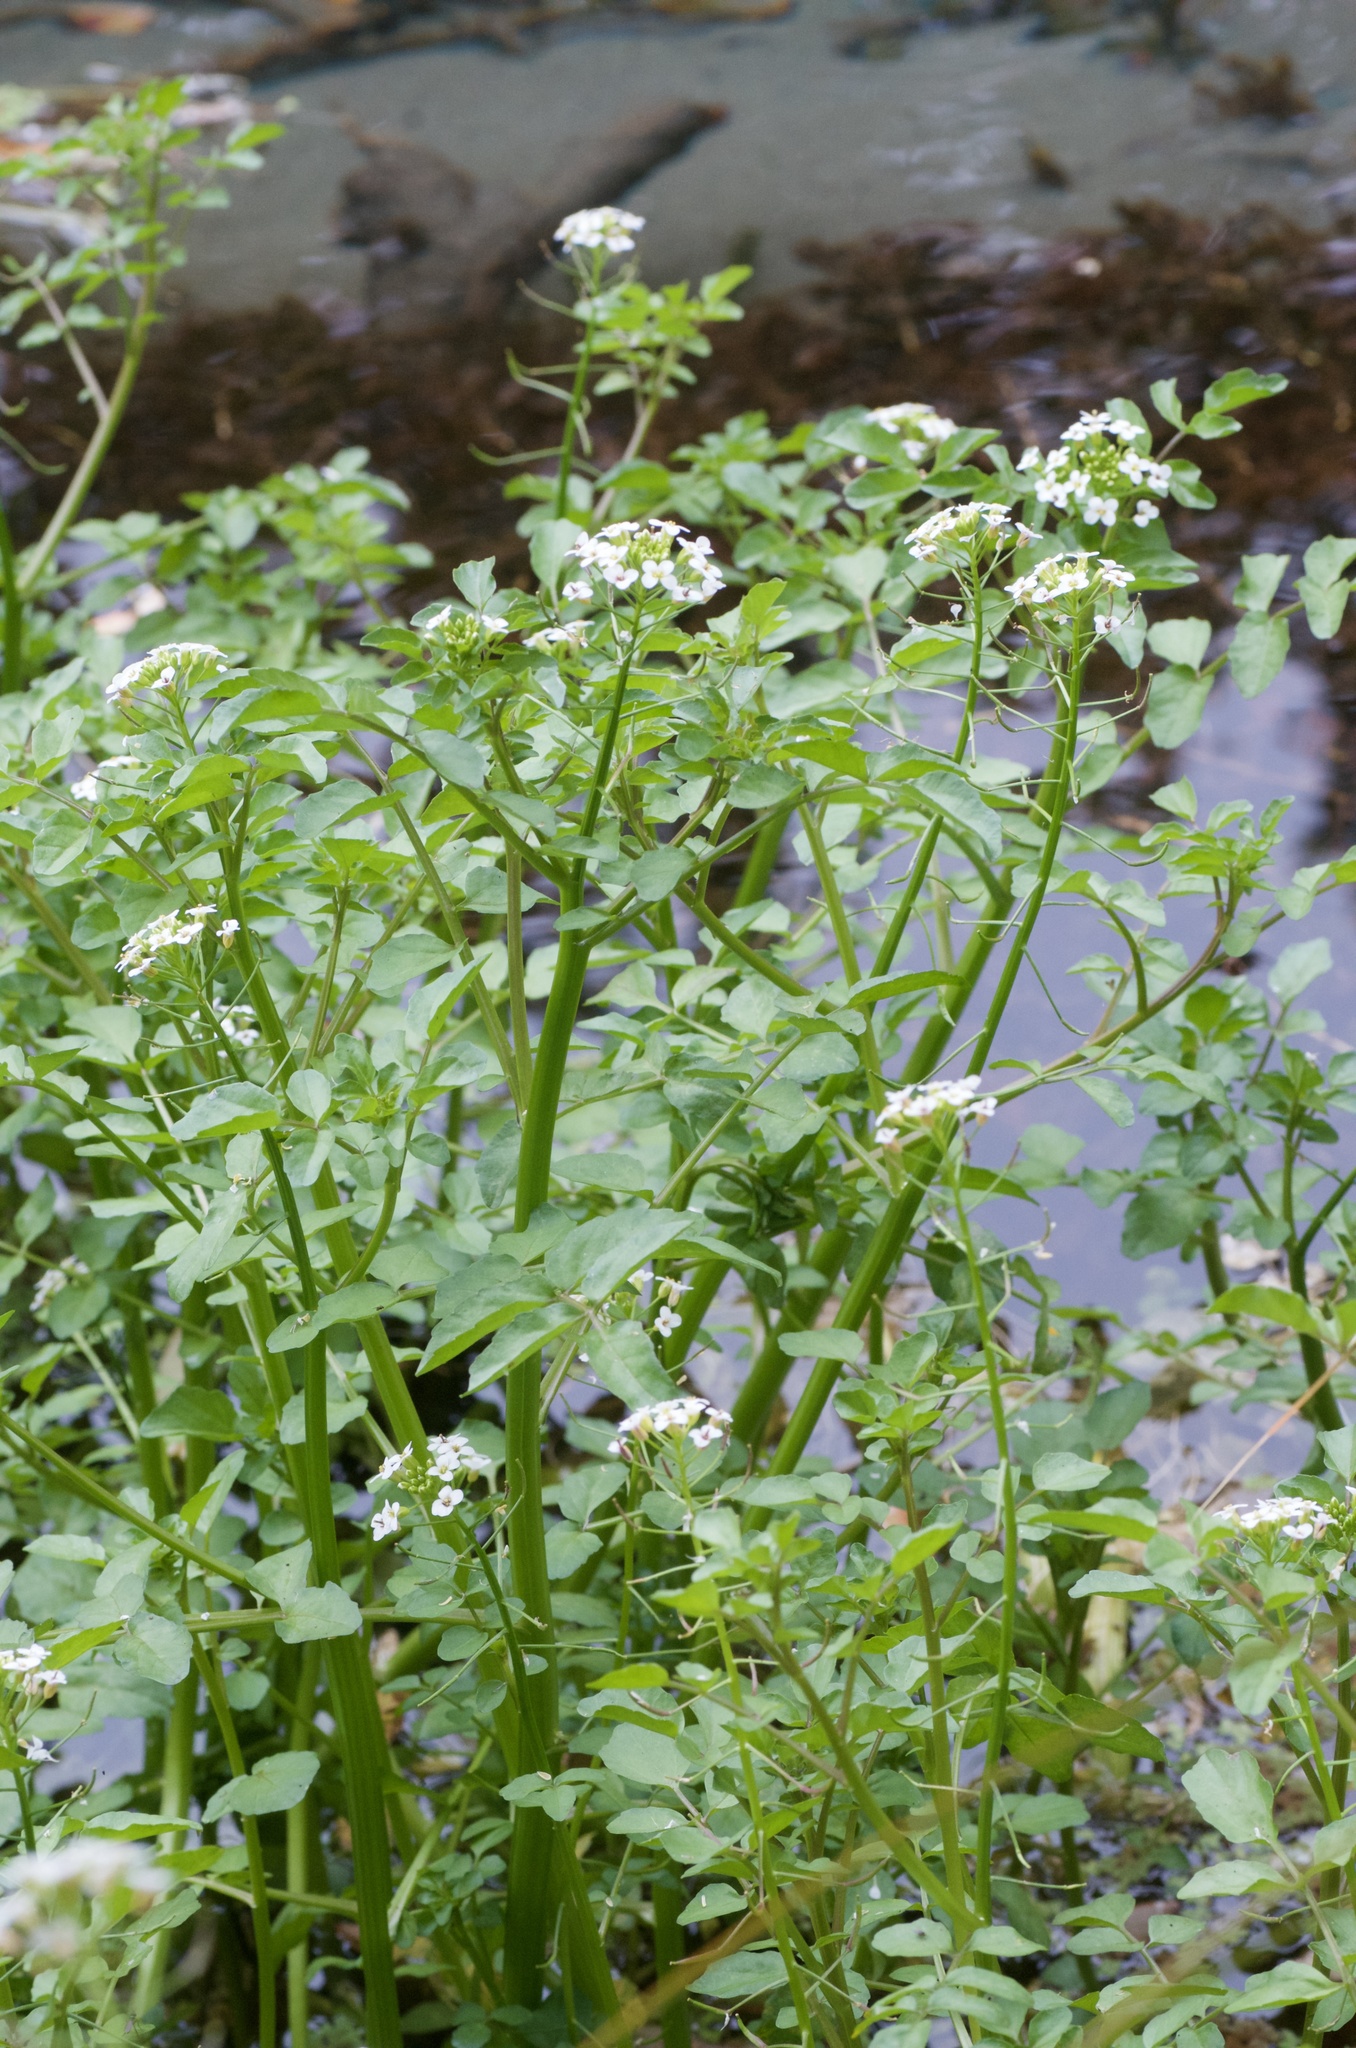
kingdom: Plantae
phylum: Tracheophyta
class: Magnoliopsida
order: Brassicales
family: Brassicaceae
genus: Nasturtium
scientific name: Nasturtium officinale
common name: Watercress
